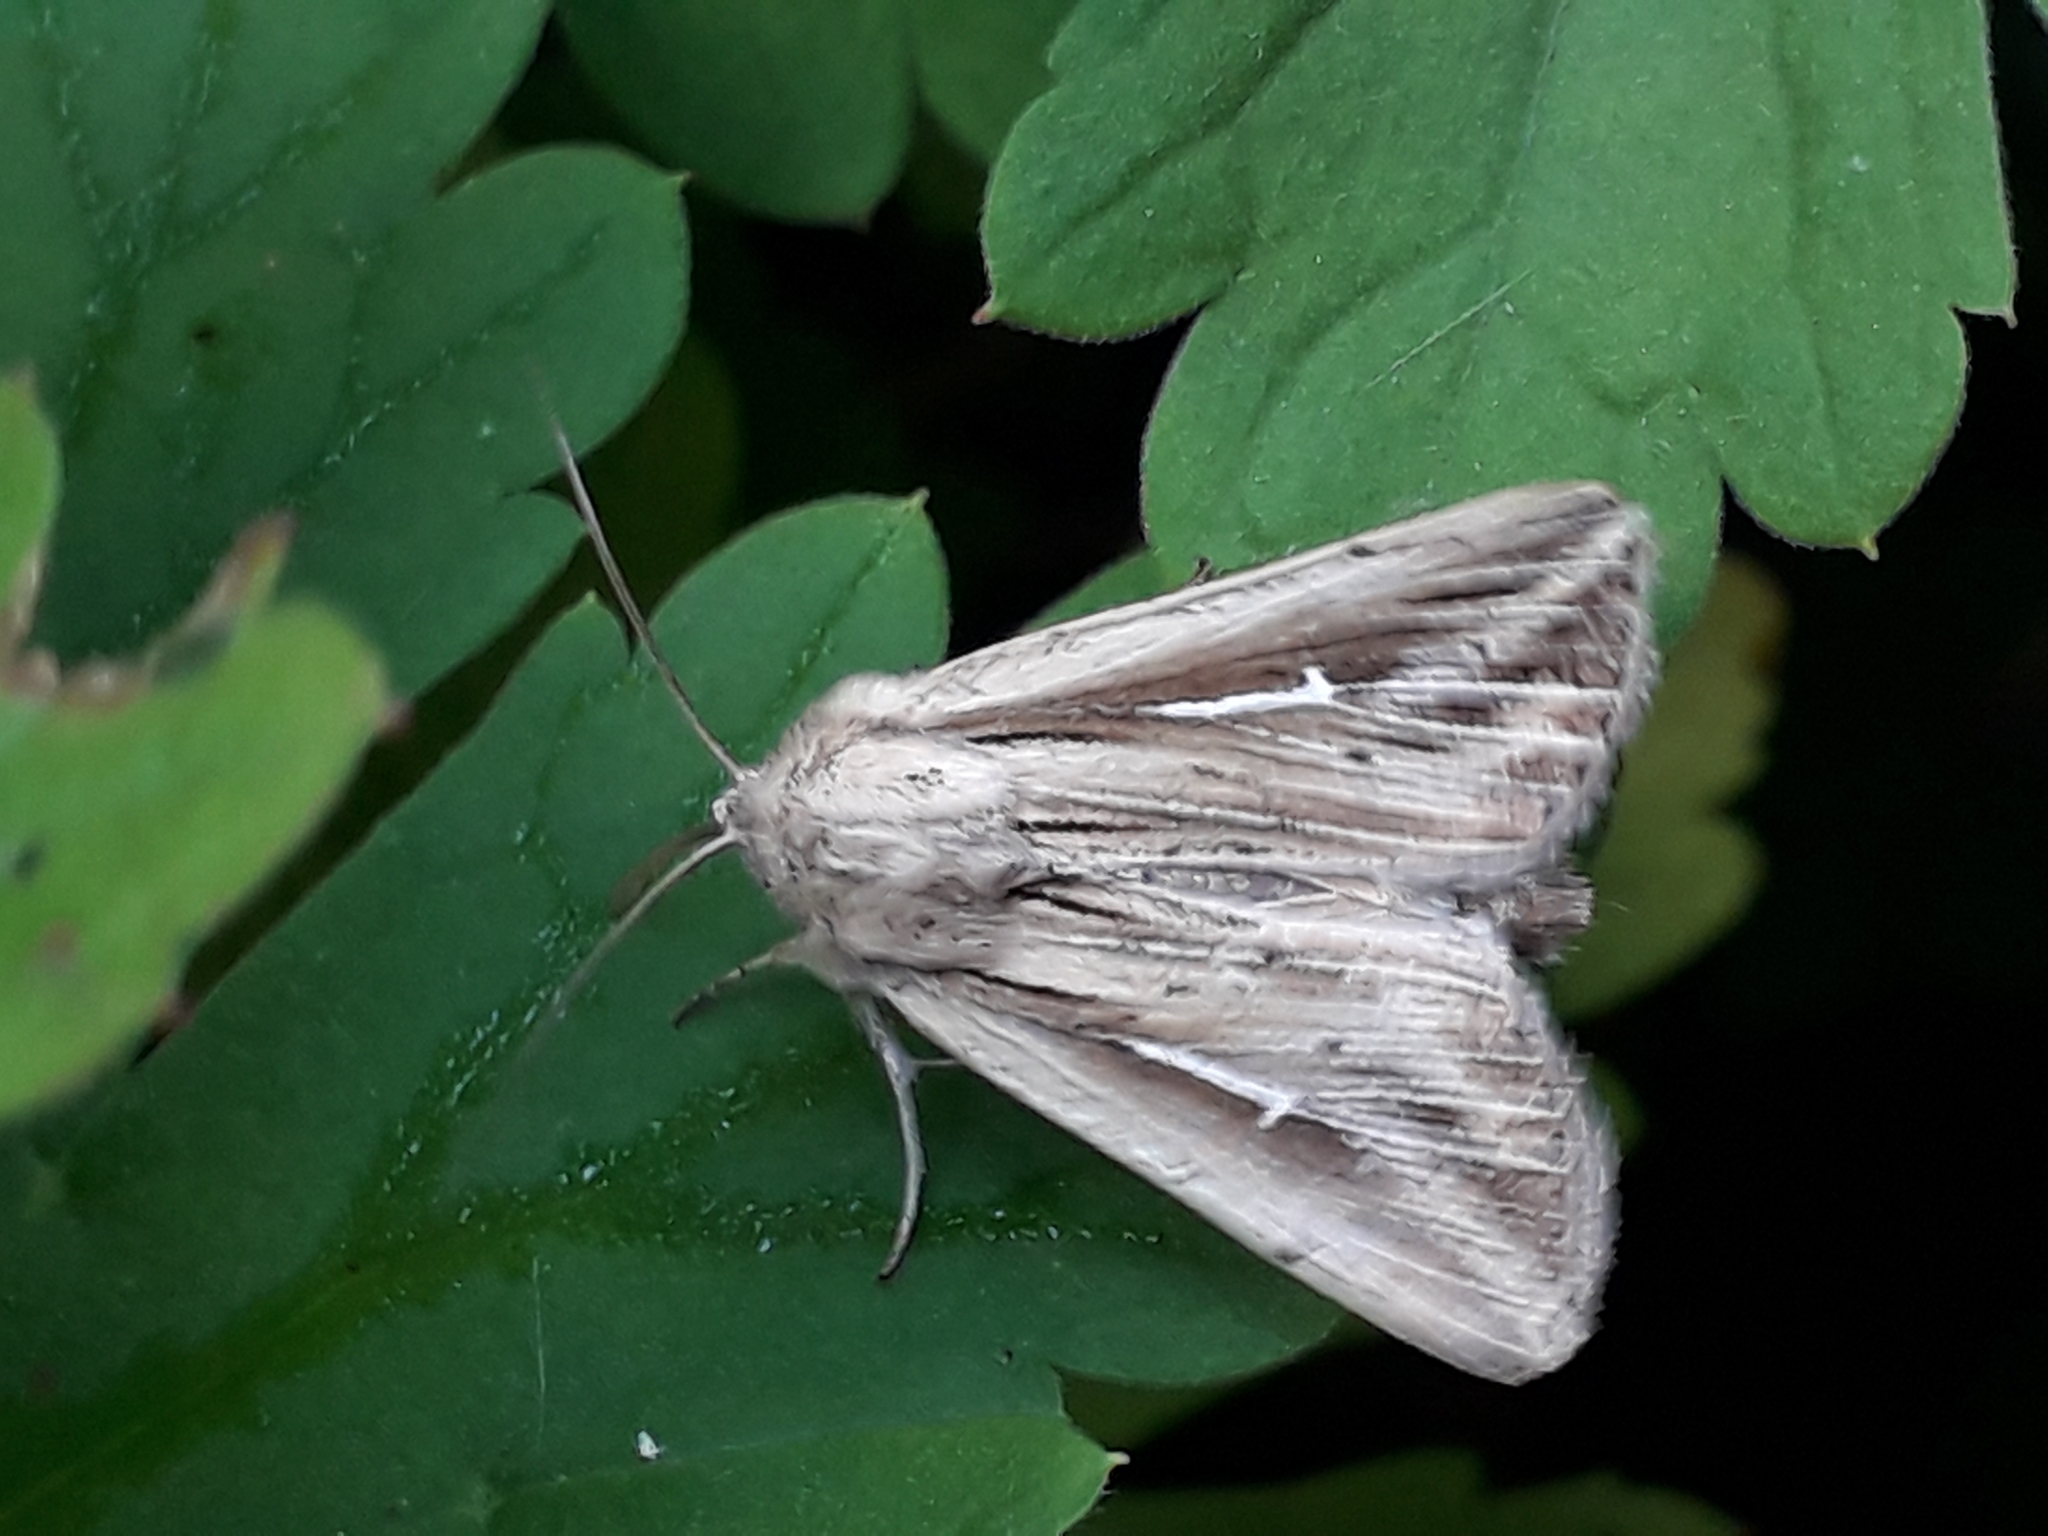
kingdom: Animalia
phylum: Arthropoda
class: Insecta
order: Lepidoptera
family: Noctuidae
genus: Mythimna
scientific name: Mythimna l-album
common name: L-album wainscot
